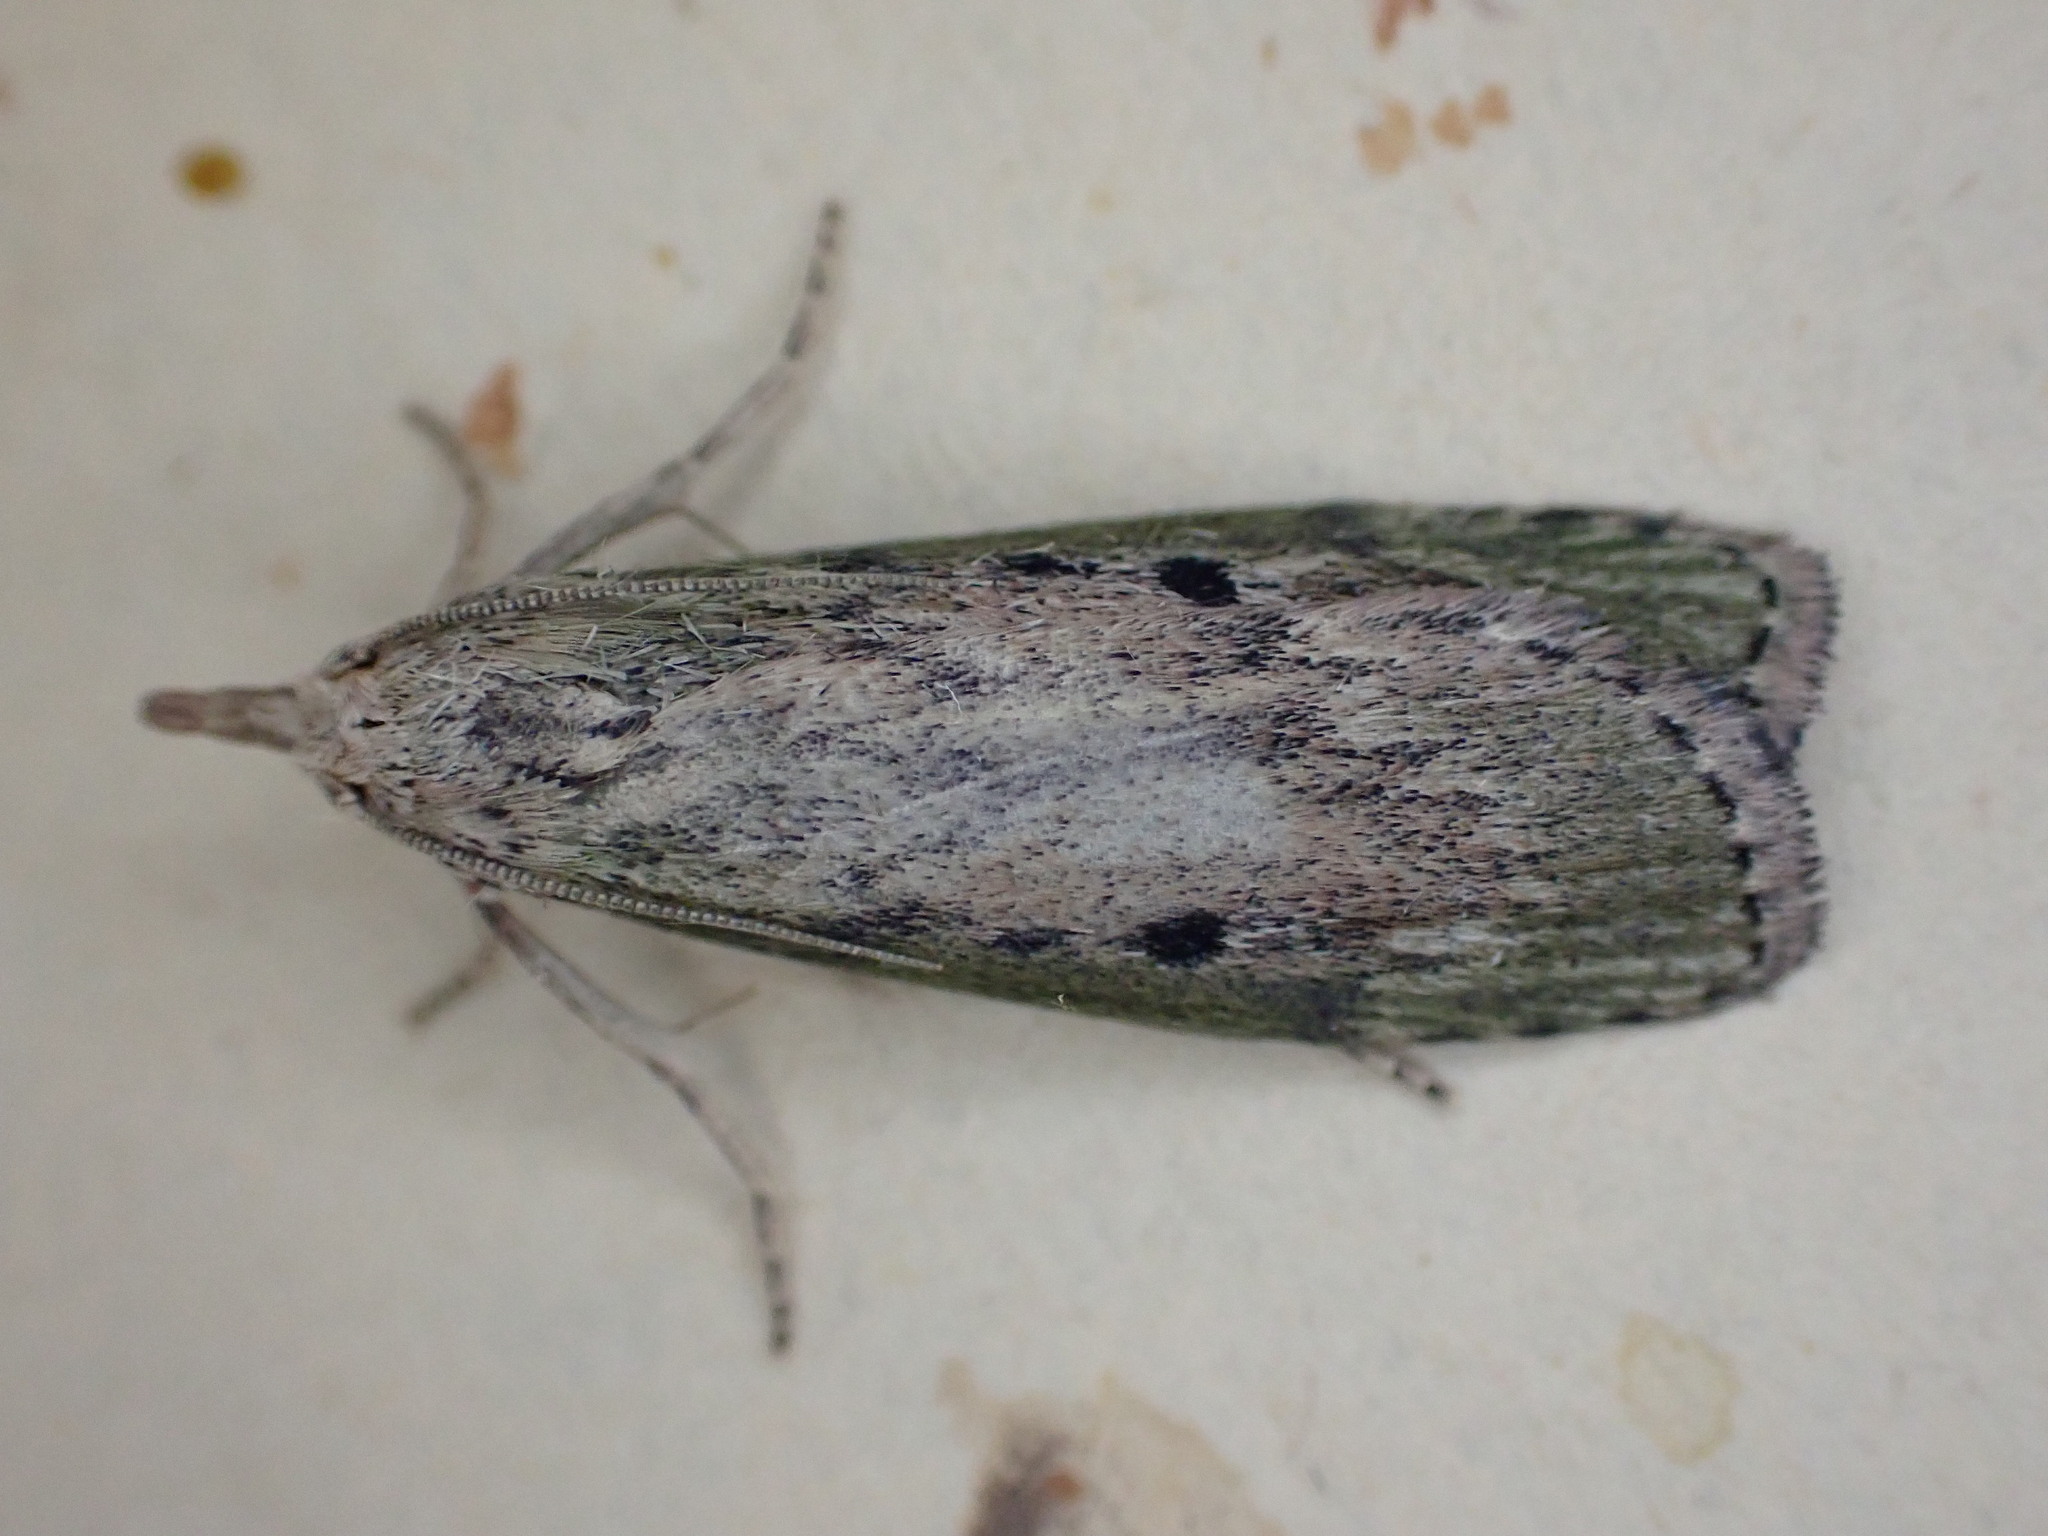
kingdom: Animalia
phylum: Arthropoda
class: Insecta
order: Lepidoptera
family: Pyralidae
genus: Aphomia
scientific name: Aphomia sociella
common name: Bee moth
